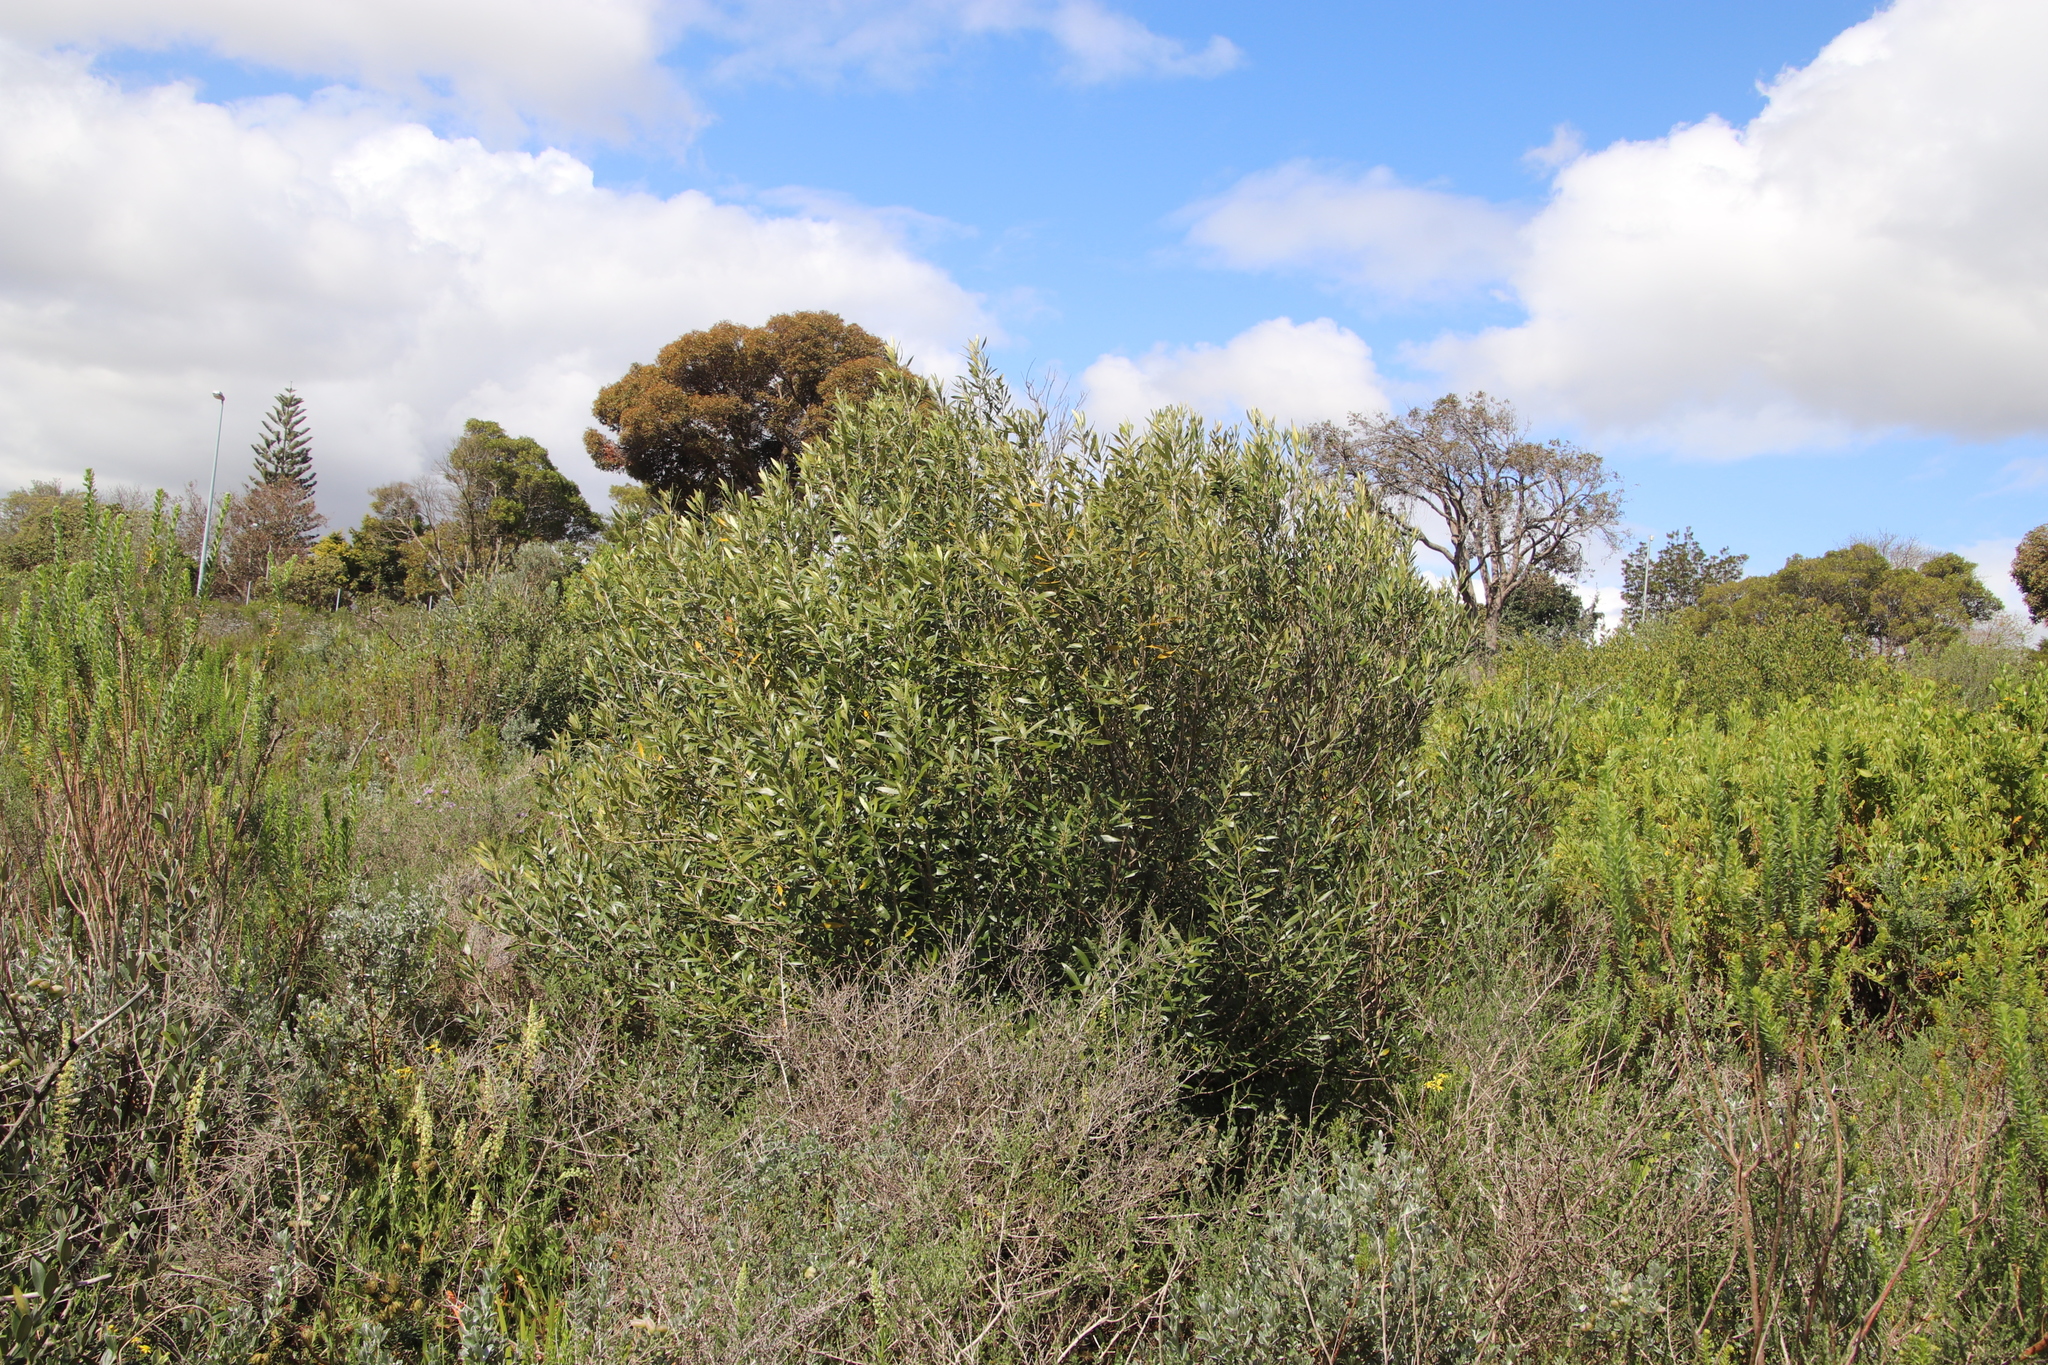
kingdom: Plantae
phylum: Tracheophyta
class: Magnoliopsida
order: Lamiales
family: Oleaceae
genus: Olea
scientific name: Olea europaea
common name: Olive
